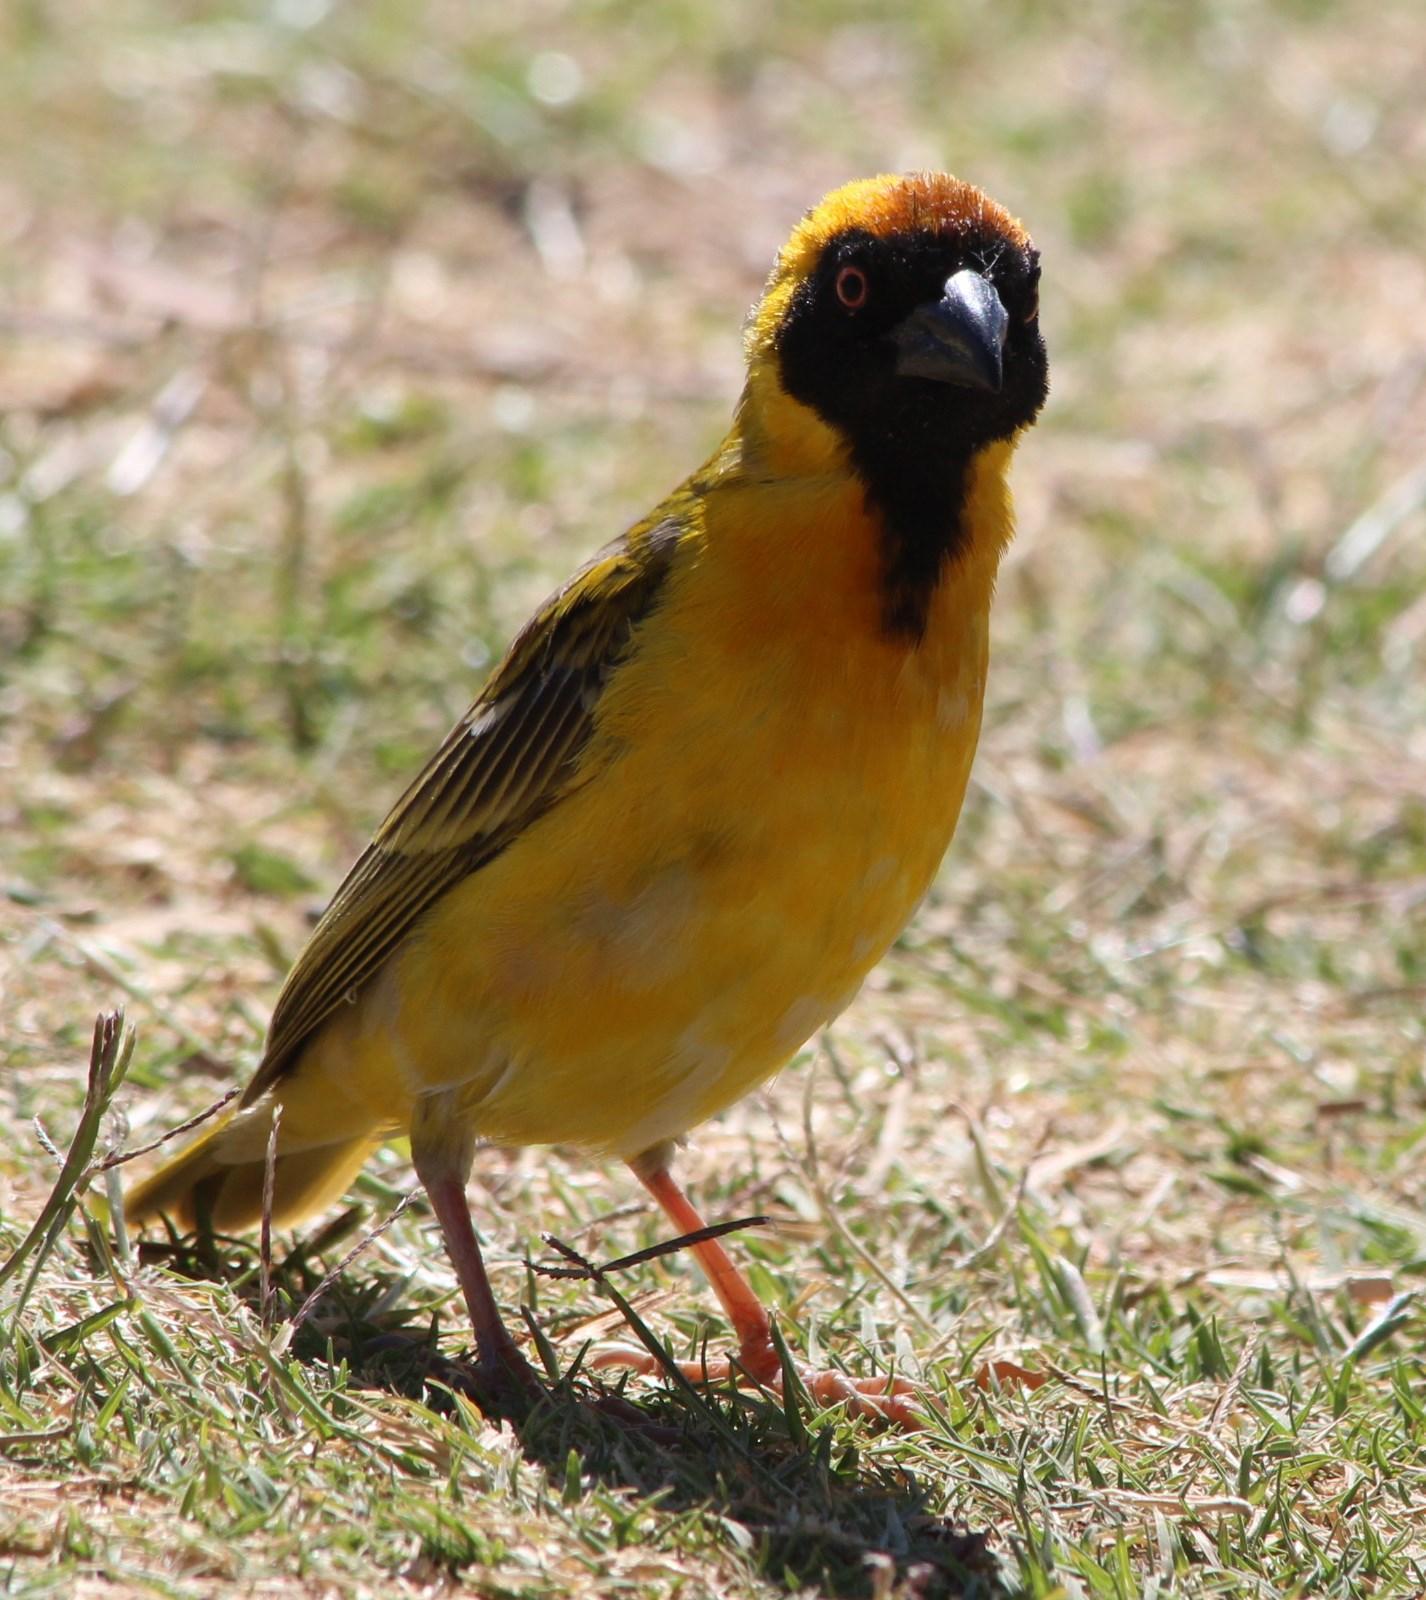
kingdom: Animalia
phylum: Chordata
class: Aves
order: Passeriformes
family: Ploceidae
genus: Ploceus
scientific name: Ploceus velatus
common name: Southern masked weaver
